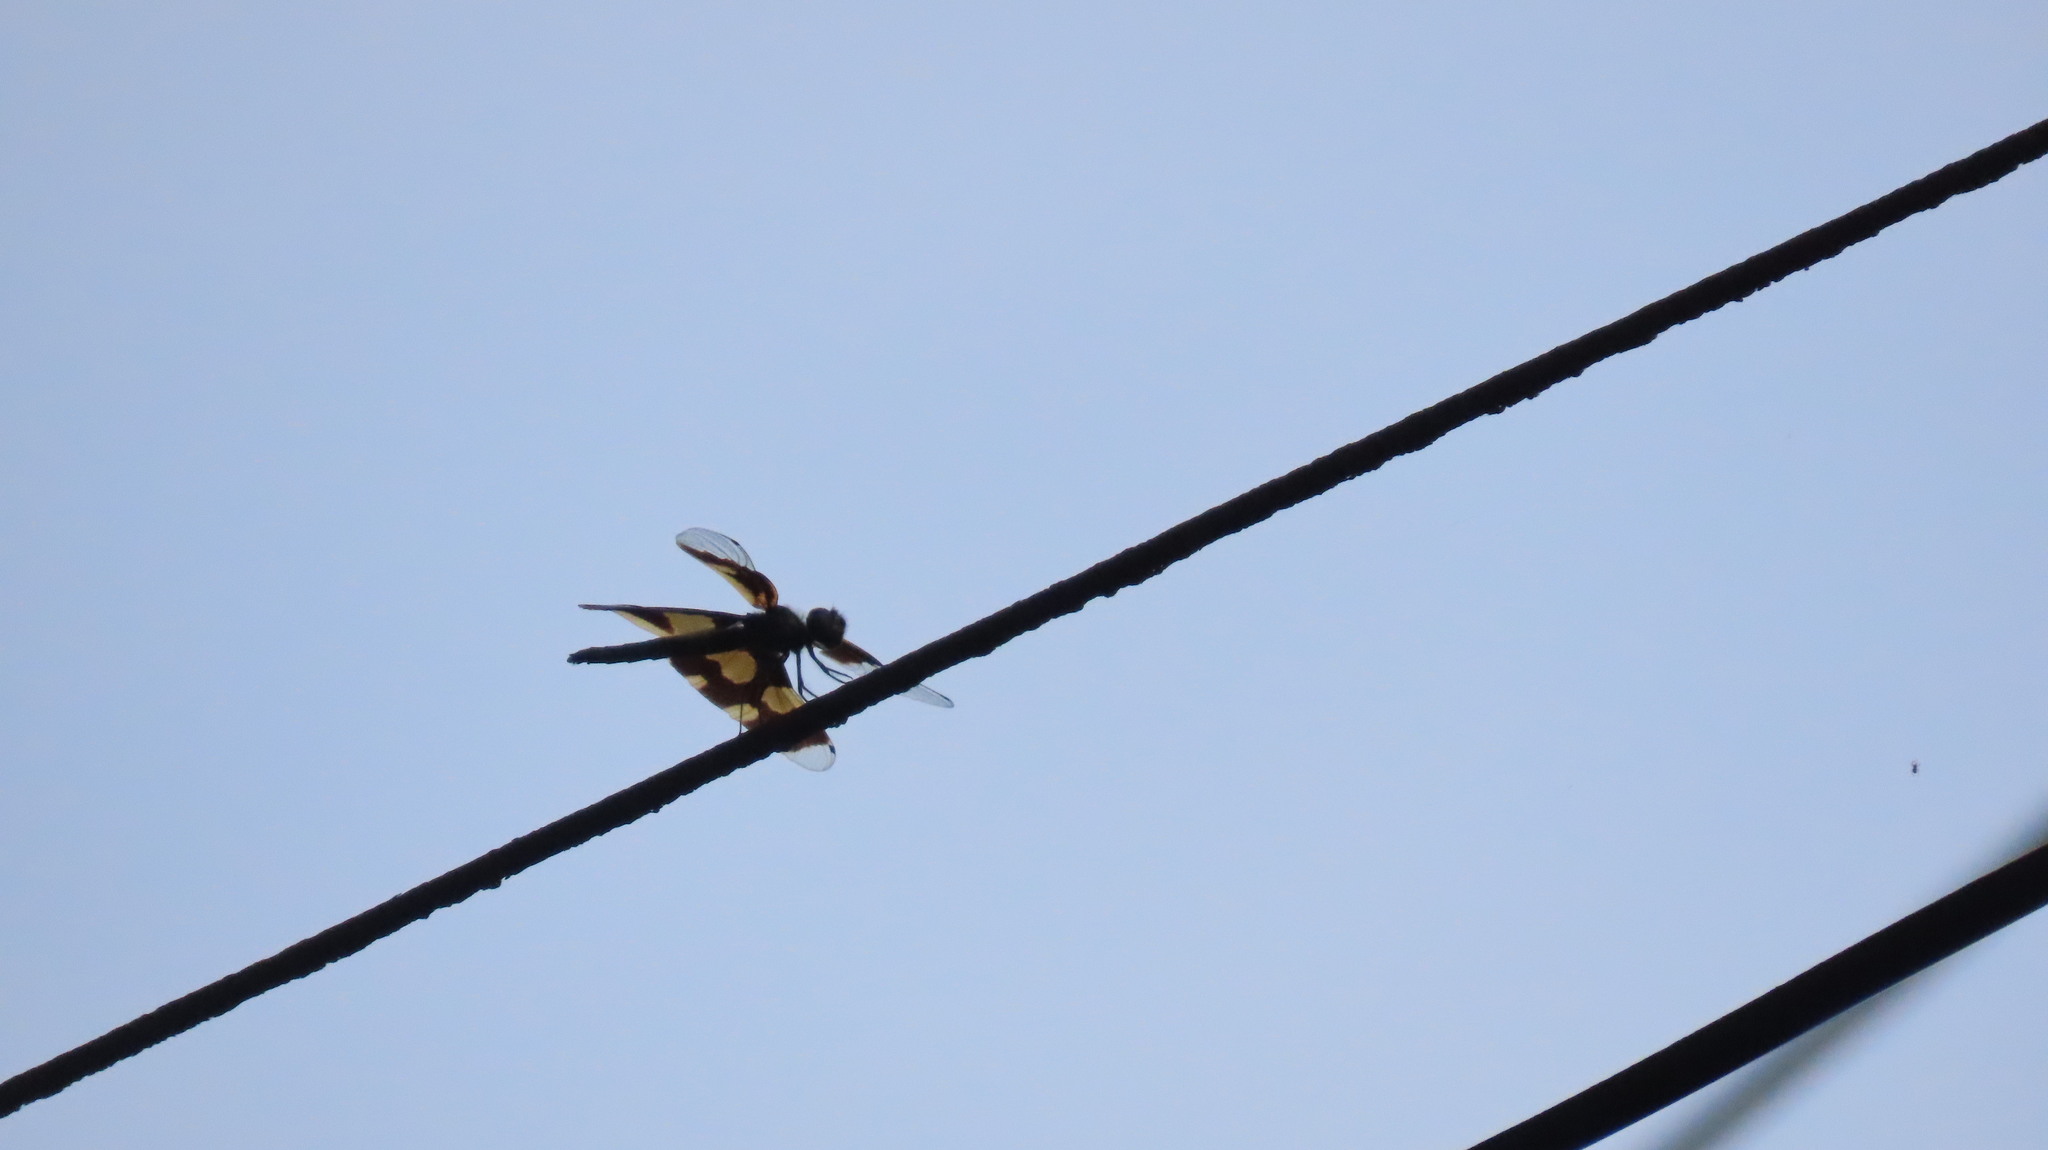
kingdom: Animalia
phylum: Arthropoda
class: Insecta
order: Odonata
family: Libellulidae
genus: Rhyothemis
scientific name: Rhyothemis variegata
